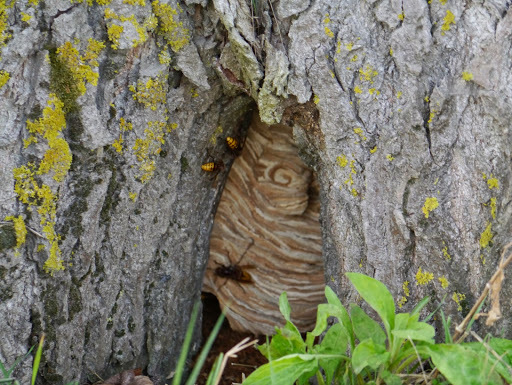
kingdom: Animalia
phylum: Arthropoda
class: Insecta
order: Hymenoptera
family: Vespidae
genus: Vespa
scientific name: Vespa crabro
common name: Hornet
